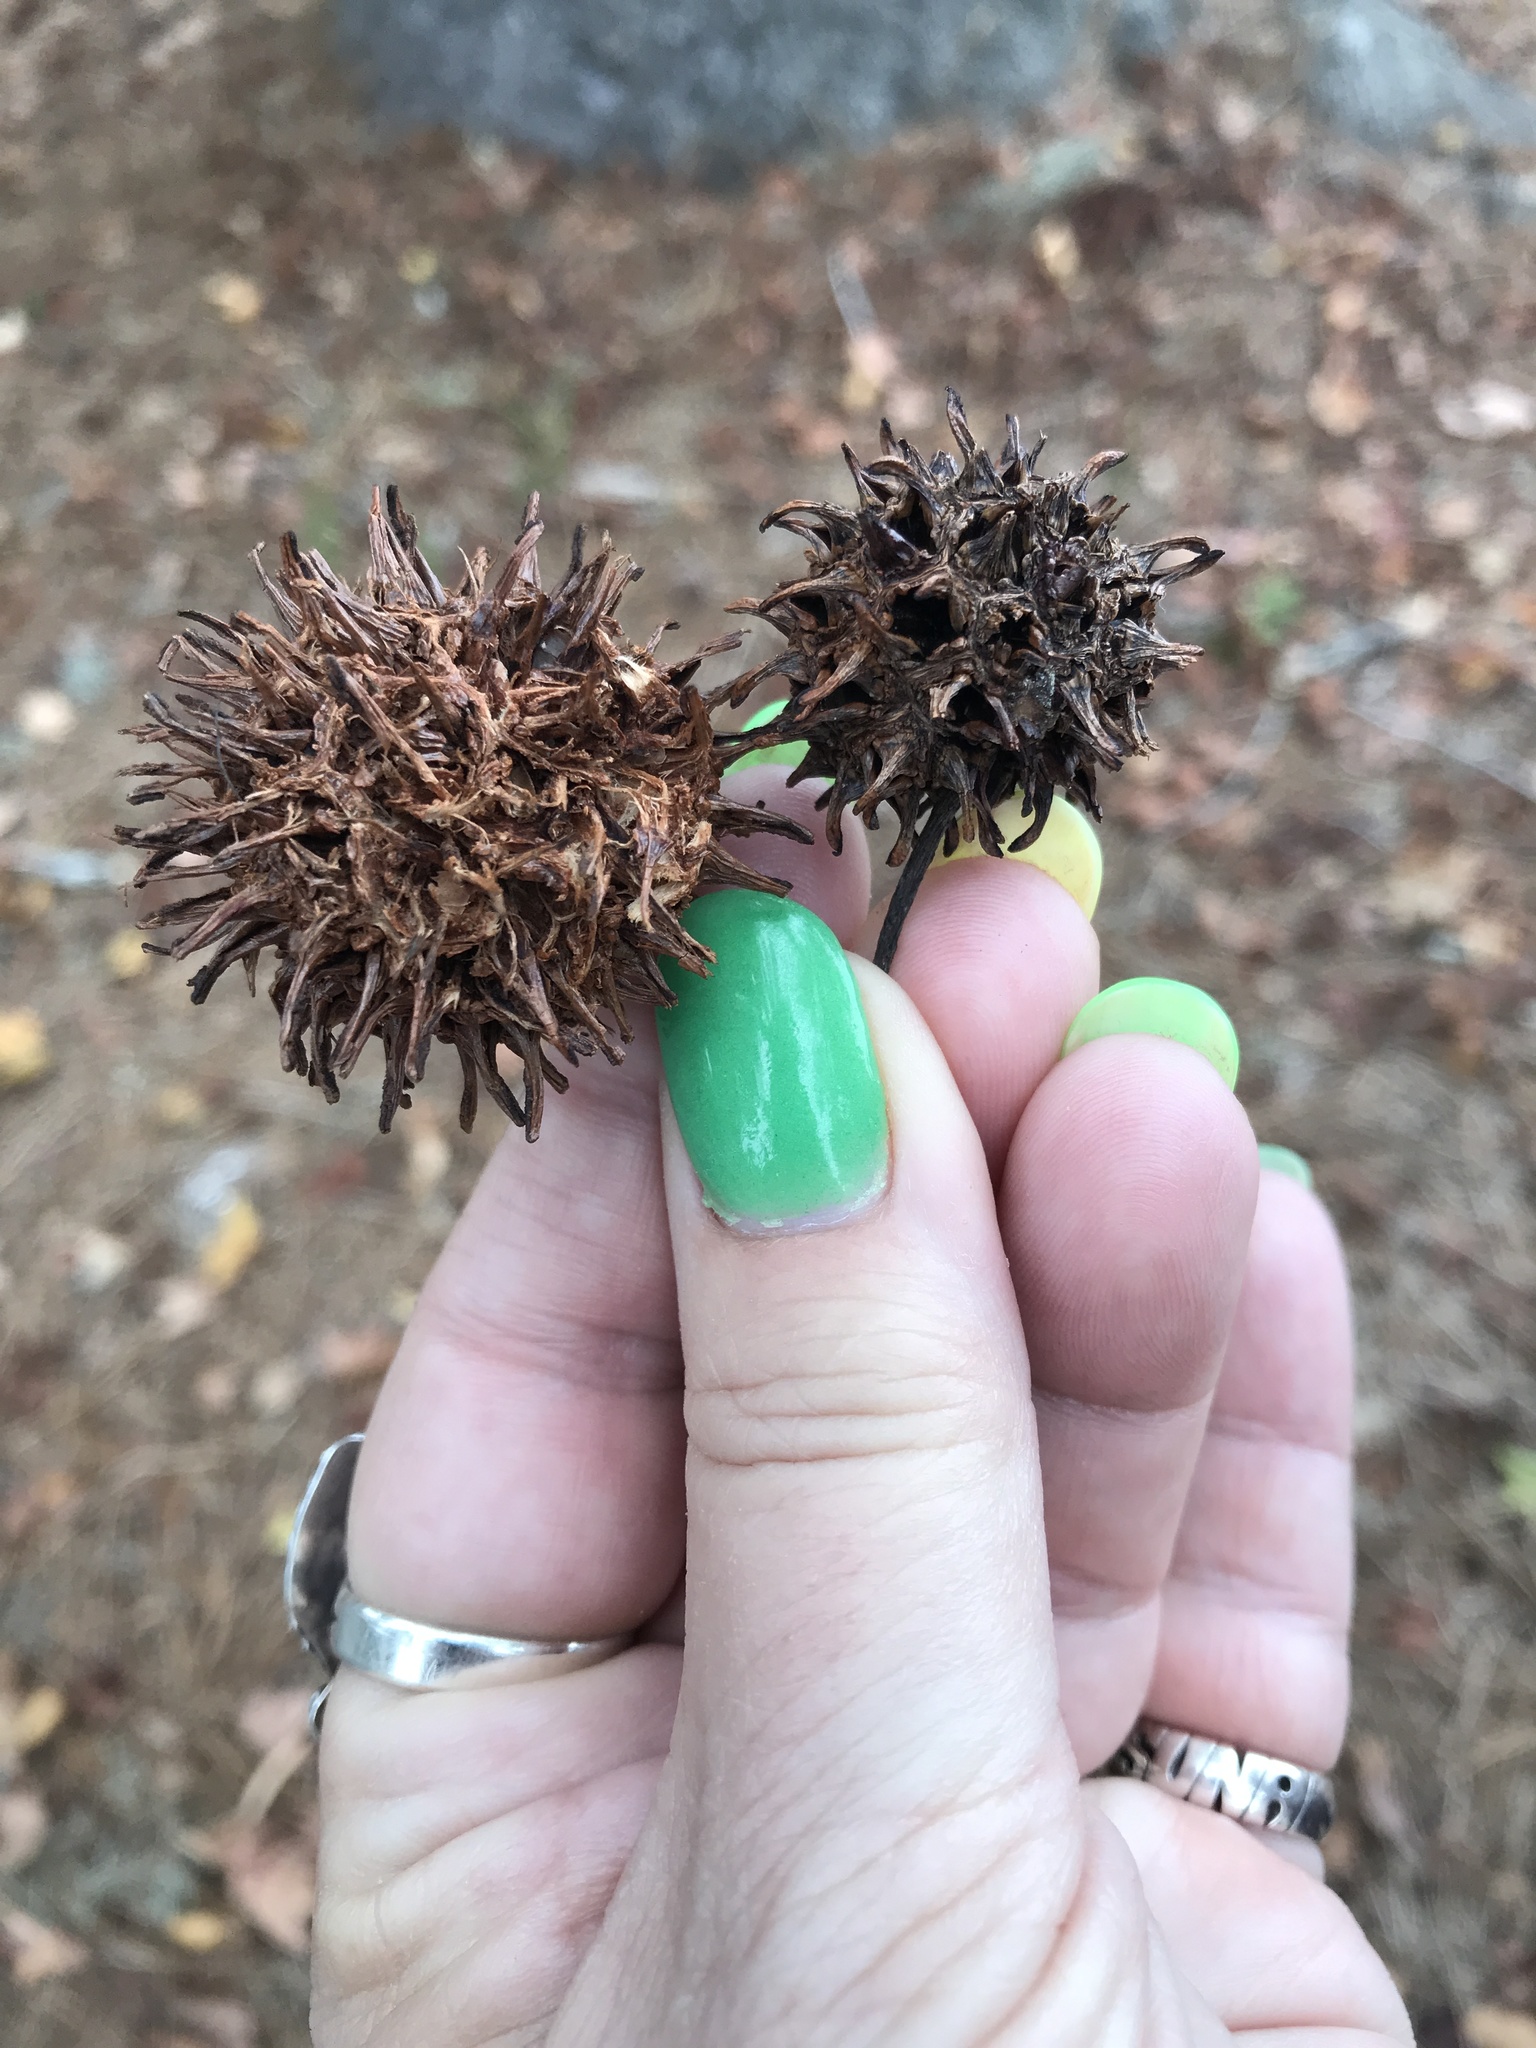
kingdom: Plantae
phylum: Tracheophyta
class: Magnoliopsida
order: Saxifragales
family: Altingiaceae
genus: Liquidambar
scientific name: Liquidambar styraciflua
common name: Sweet gum
